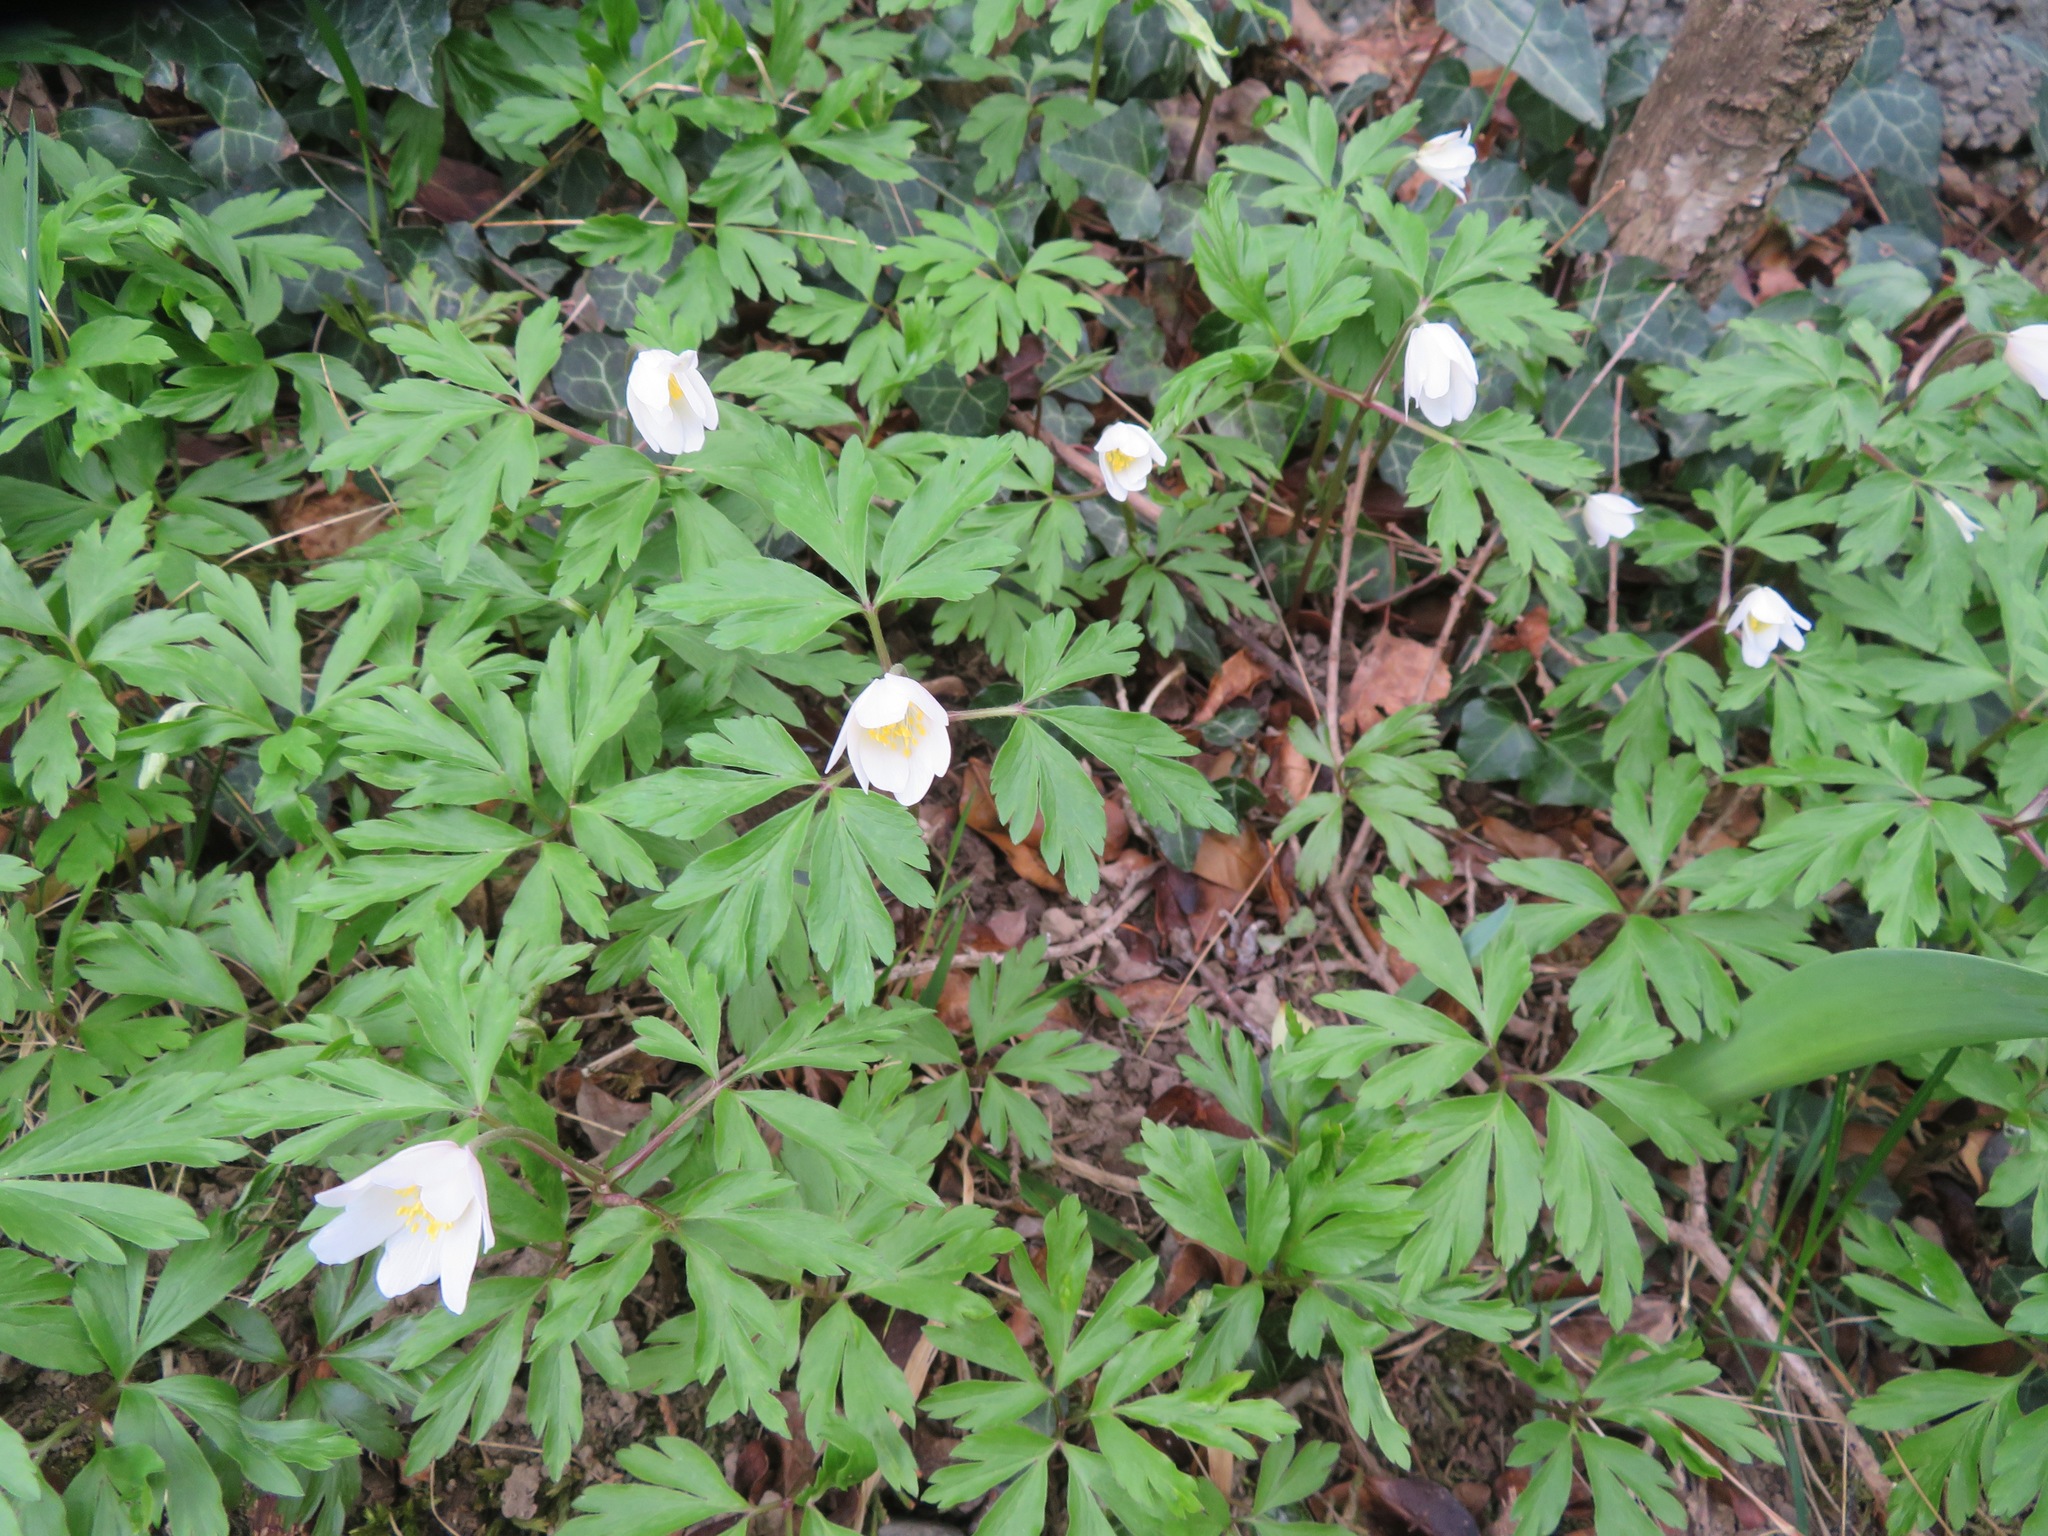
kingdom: Plantae
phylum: Tracheophyta
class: Magnoliopsida
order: Ranunculales
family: Ranunculaceae
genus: Anemone
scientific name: Anemone nemorosa
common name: Wood anemone
